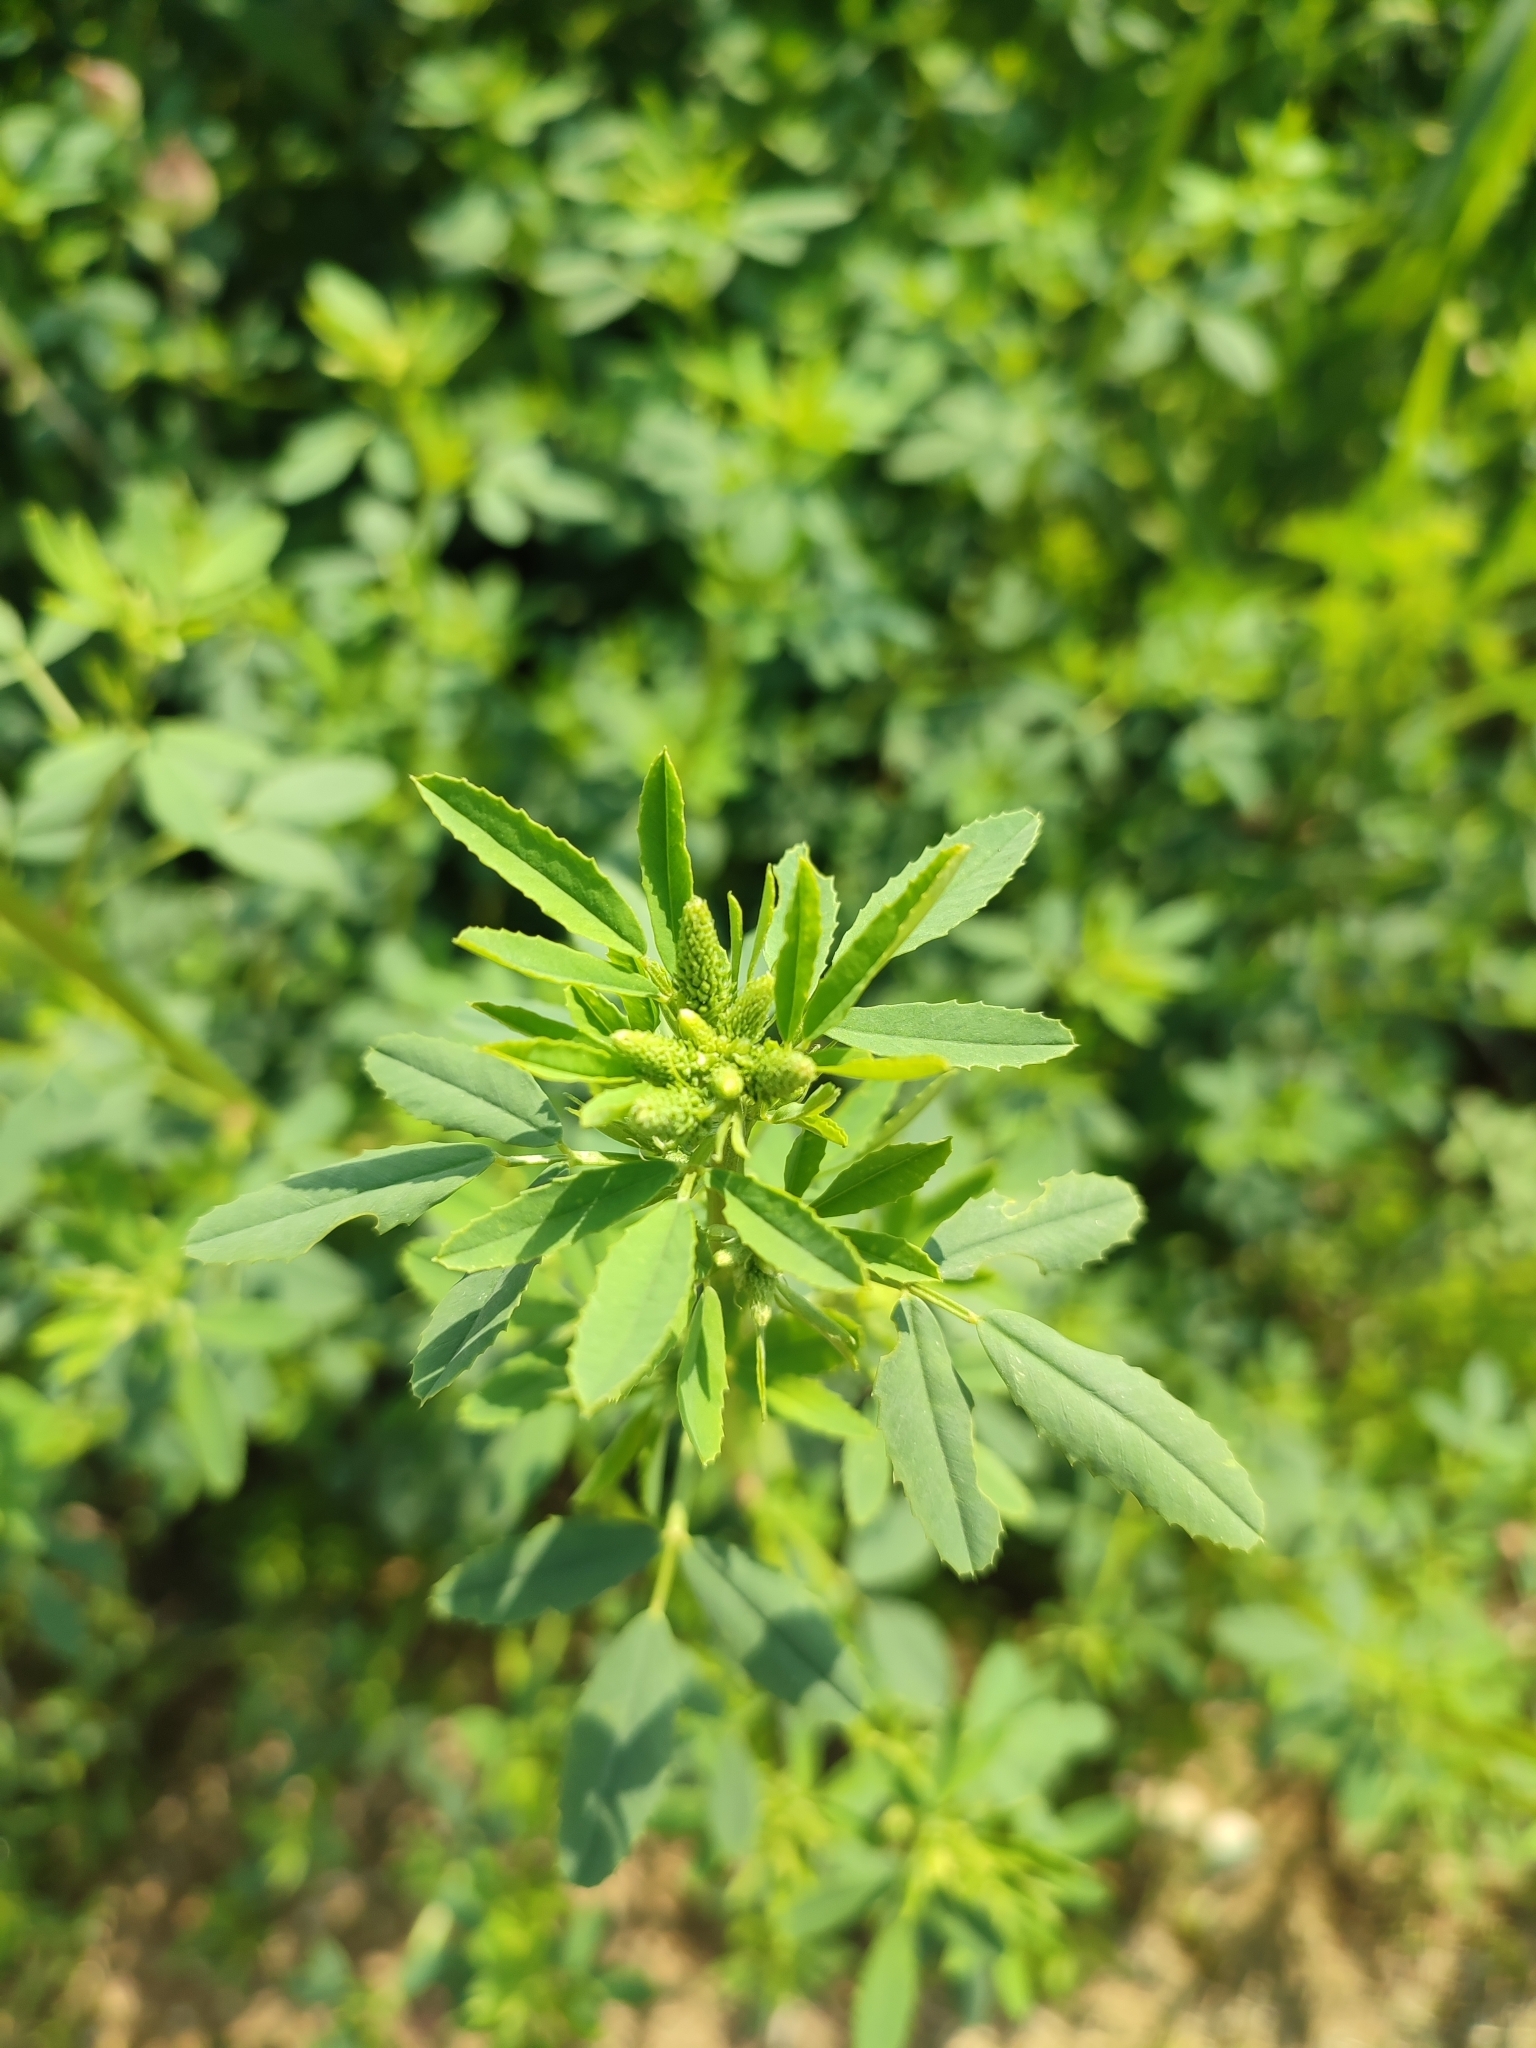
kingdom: Plantae
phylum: Tracheophyta
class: Magnoliopsida
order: Fabales
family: Fabaceae
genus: Melilotus
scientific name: Melilotus albus
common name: White melilot
